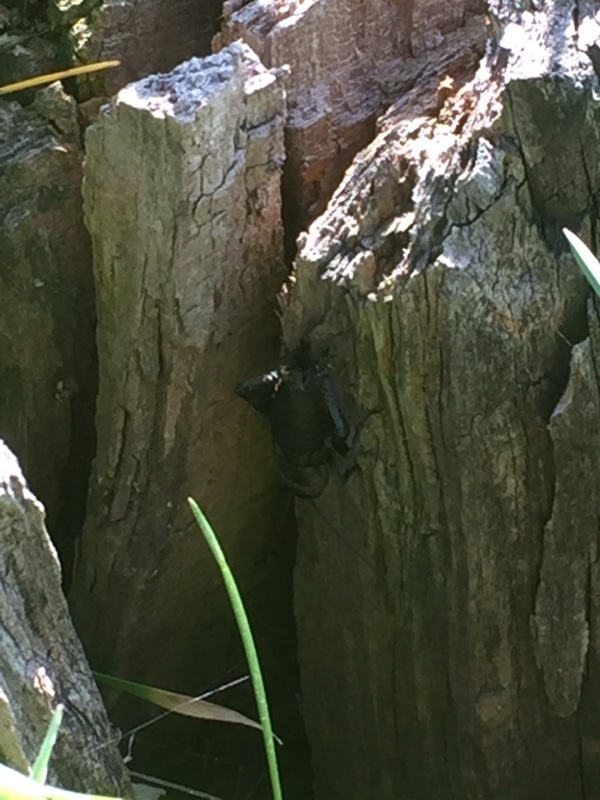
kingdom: Animalia
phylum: Arthropoda
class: Insecta
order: Orthoptera
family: Gryllidae
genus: Gryllus
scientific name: Gryllus campestris
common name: Field cricket
